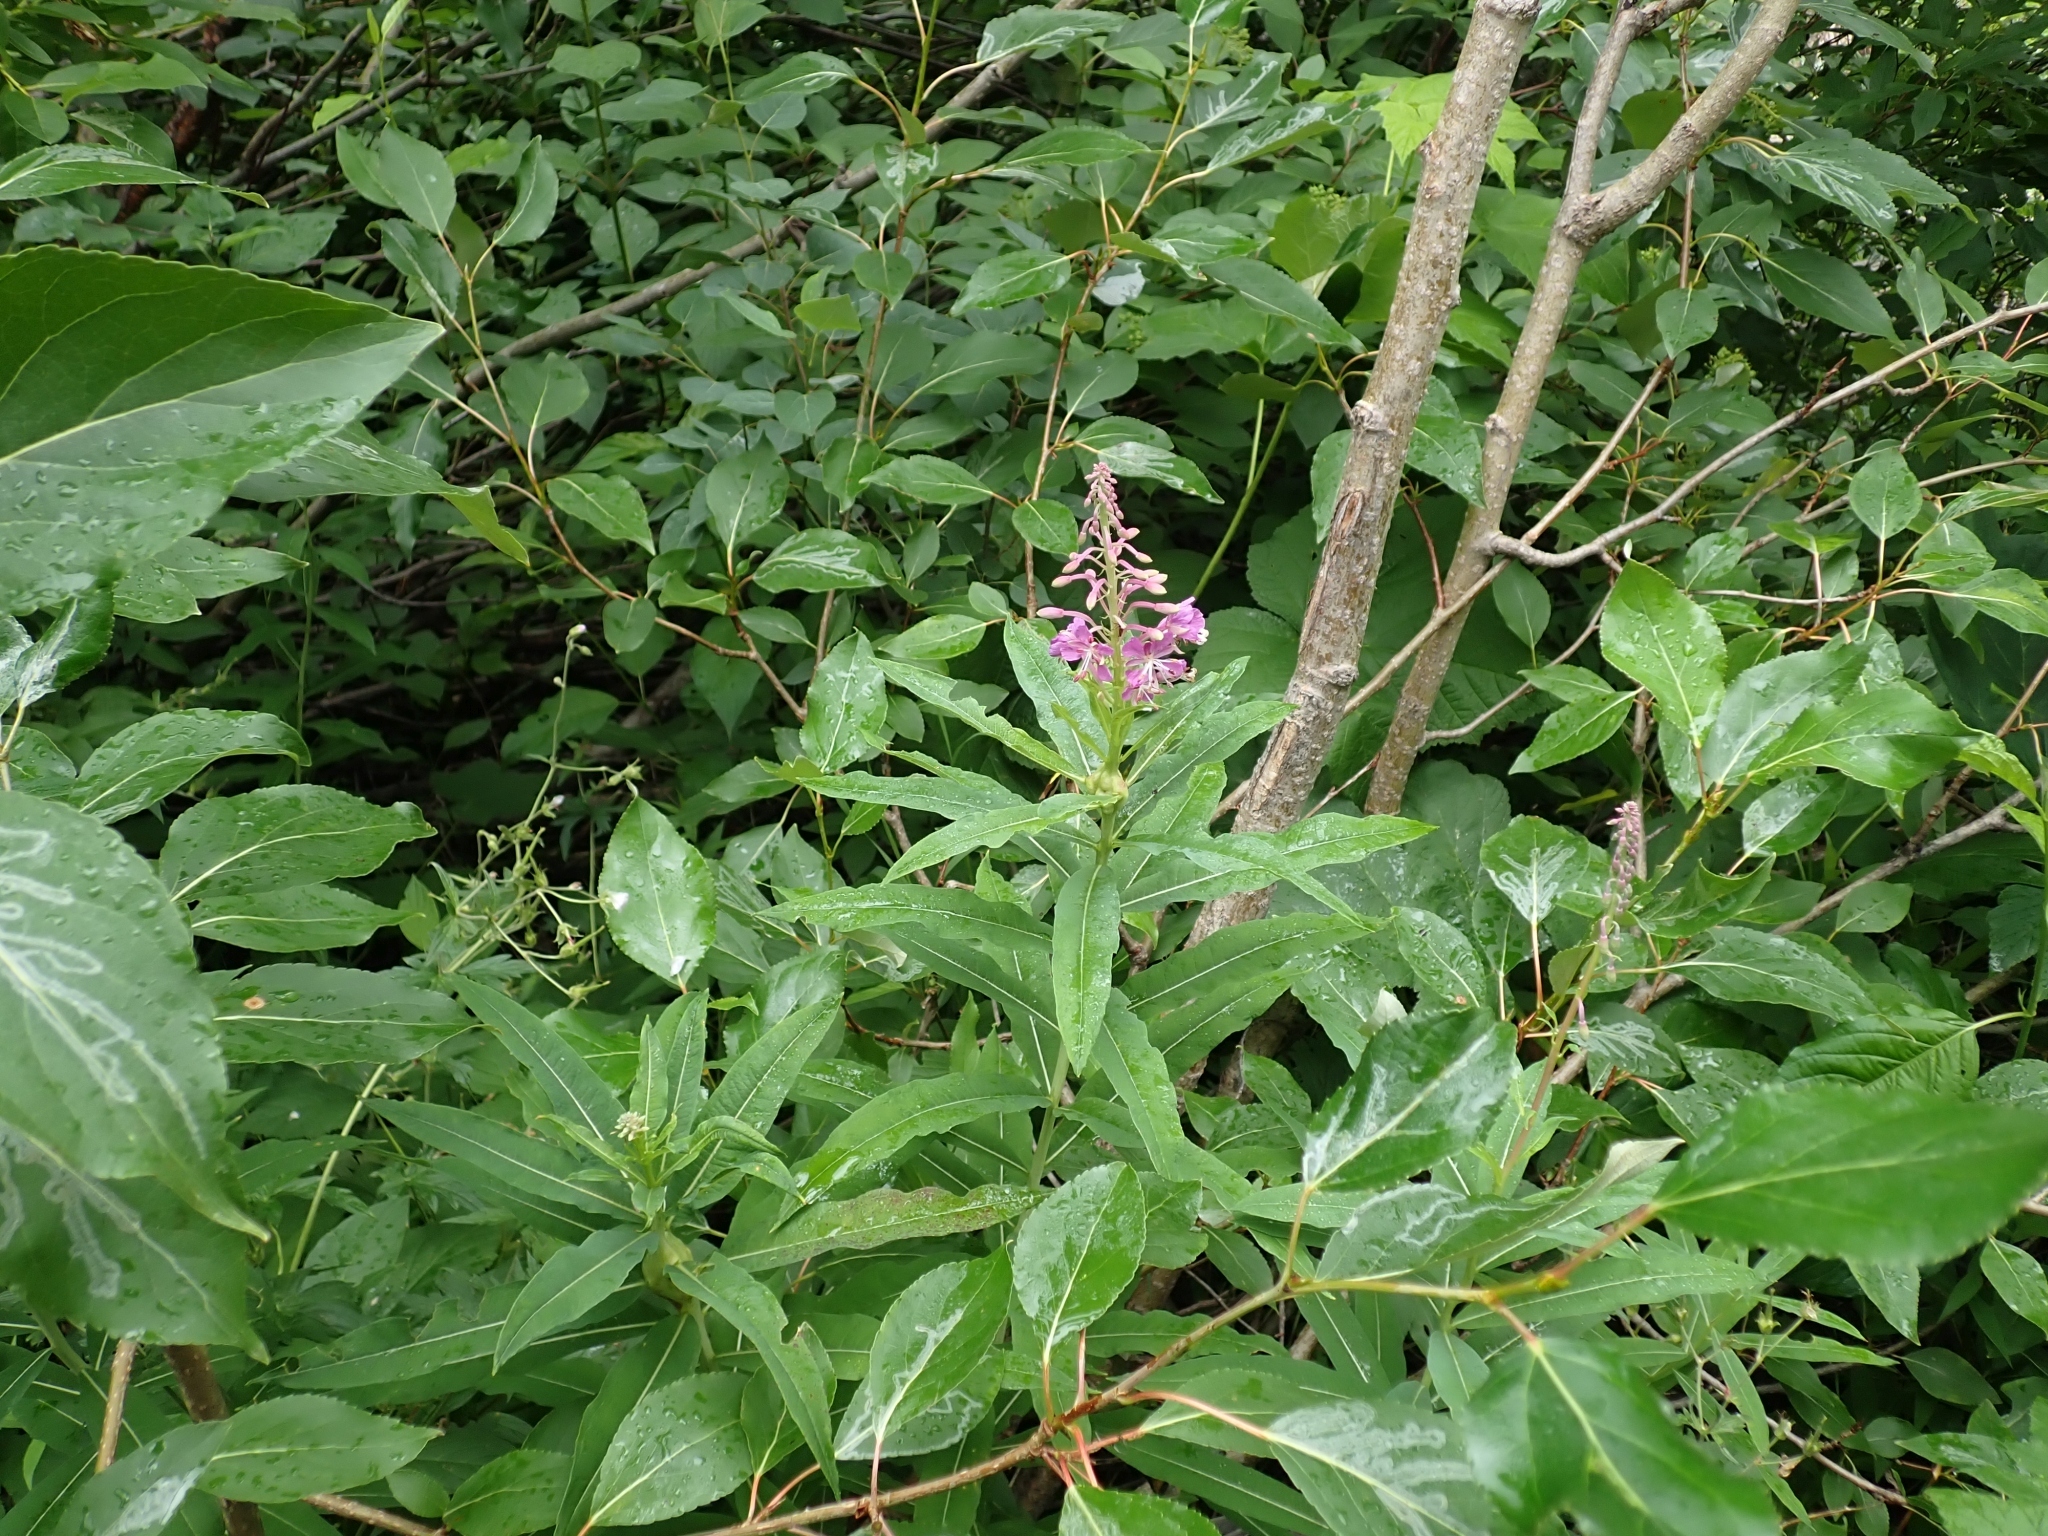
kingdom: Plantae
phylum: Tracheophyta
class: Magnoliopsida
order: Myrtales
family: Onagraceae
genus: Chamaenerion
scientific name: Chamaenerion angustifolium
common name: Fireweed
